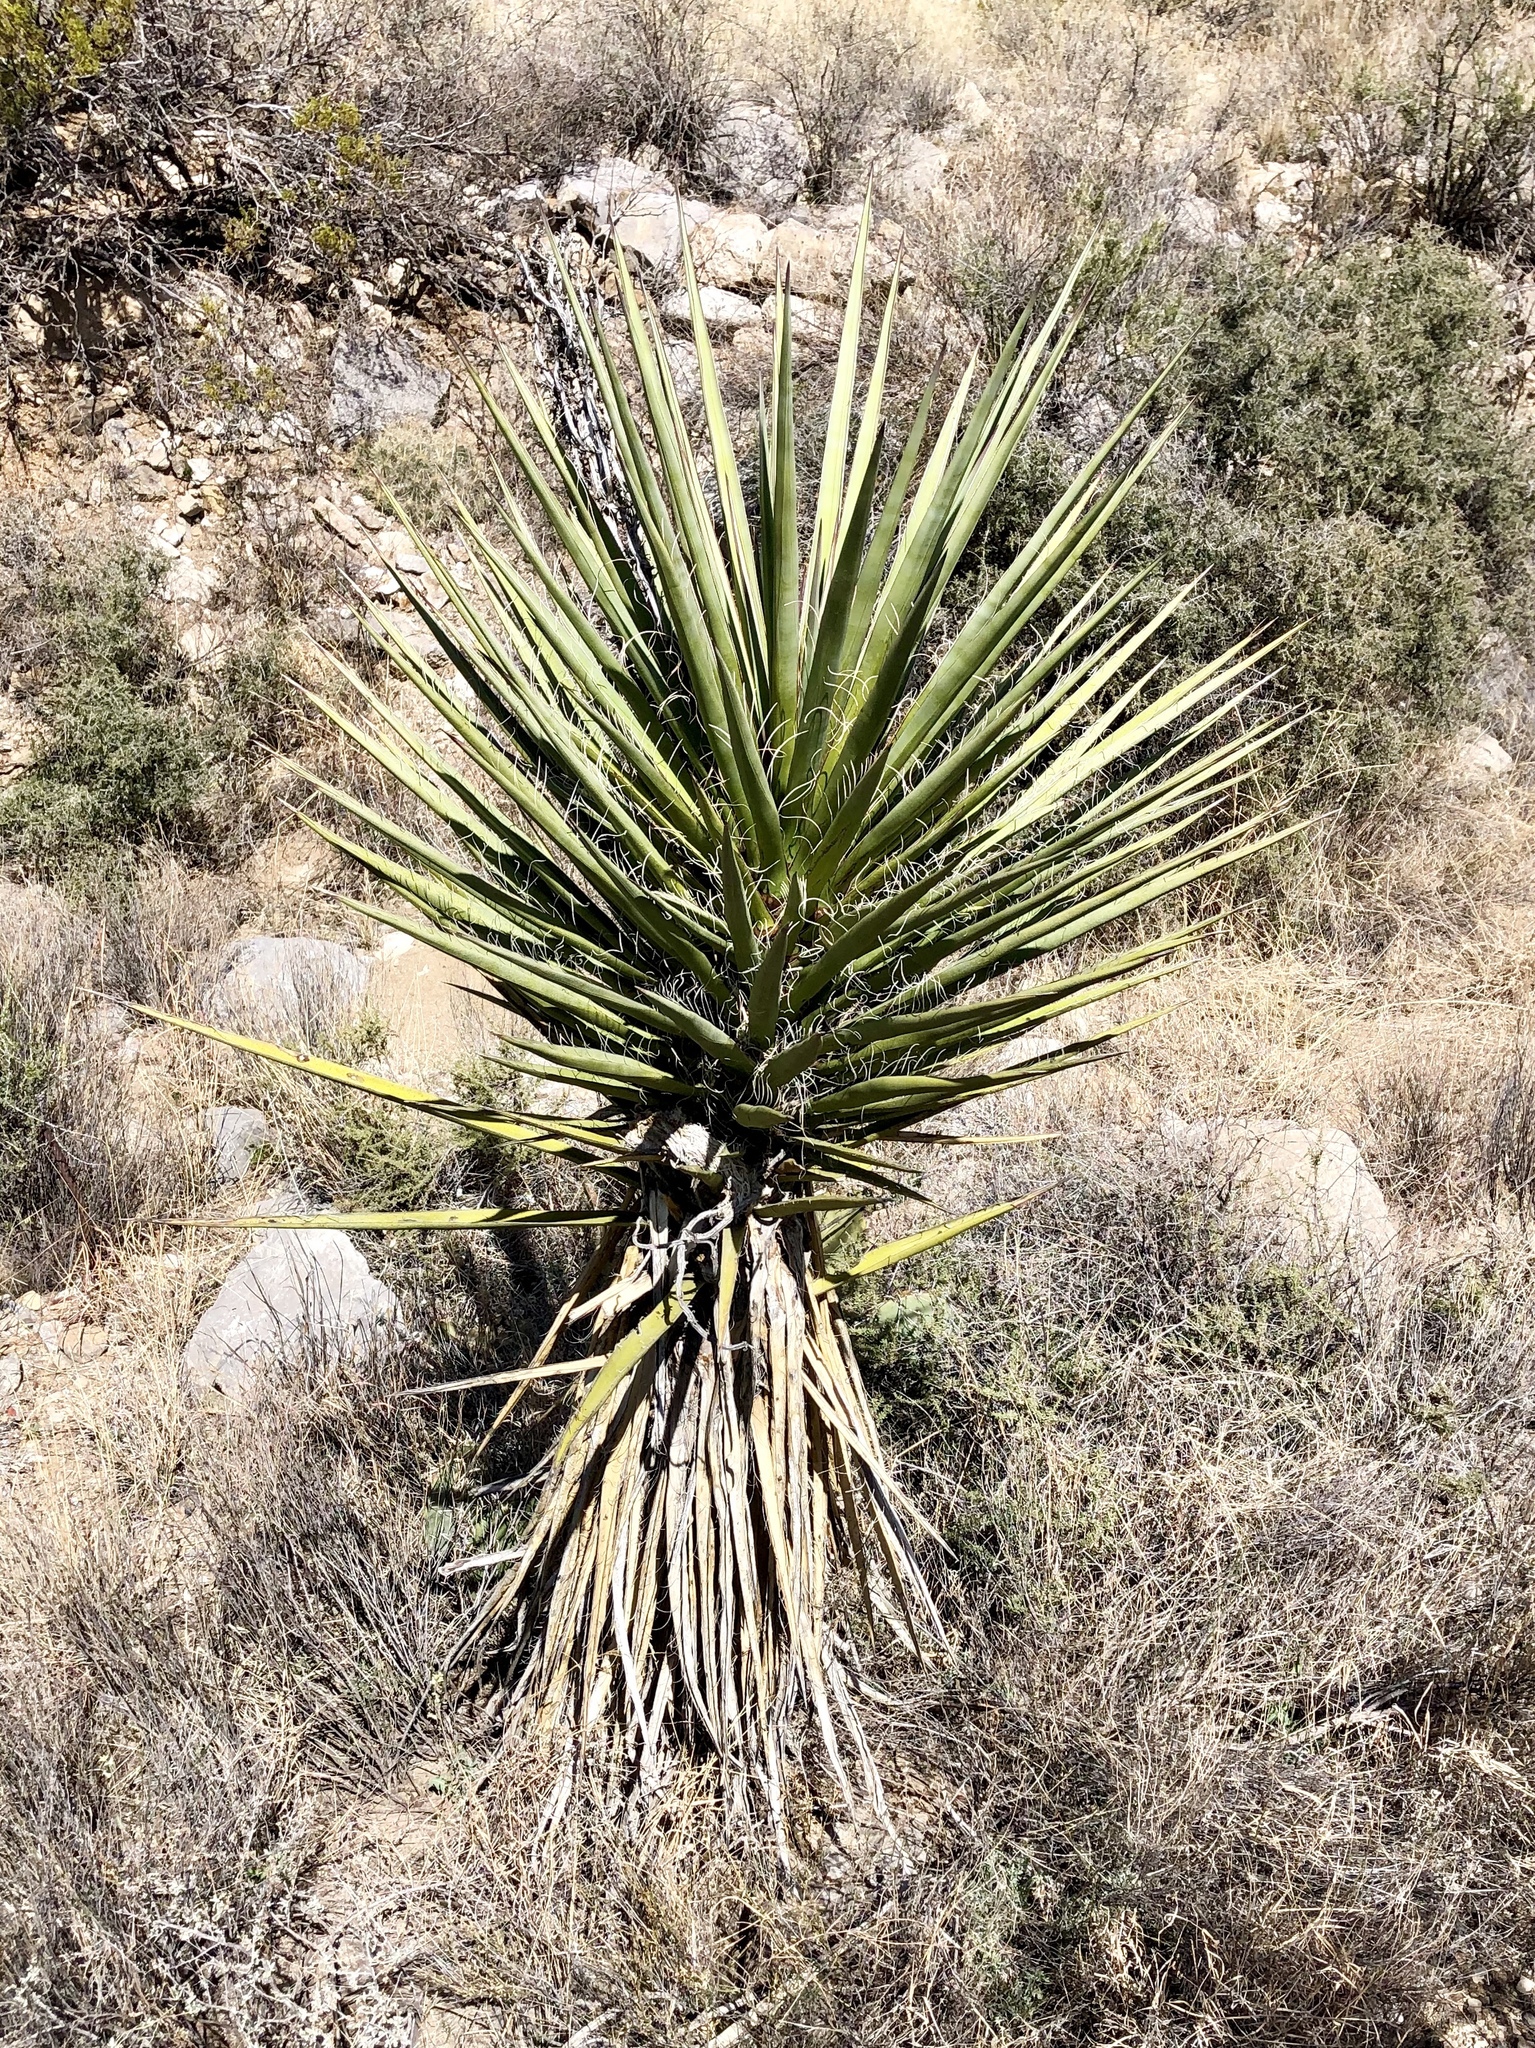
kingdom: Plantae
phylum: Tracheophyta
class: Liliopsida
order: Asparagales
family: Asparagaceae
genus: Yucca
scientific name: Yucca treculiana
